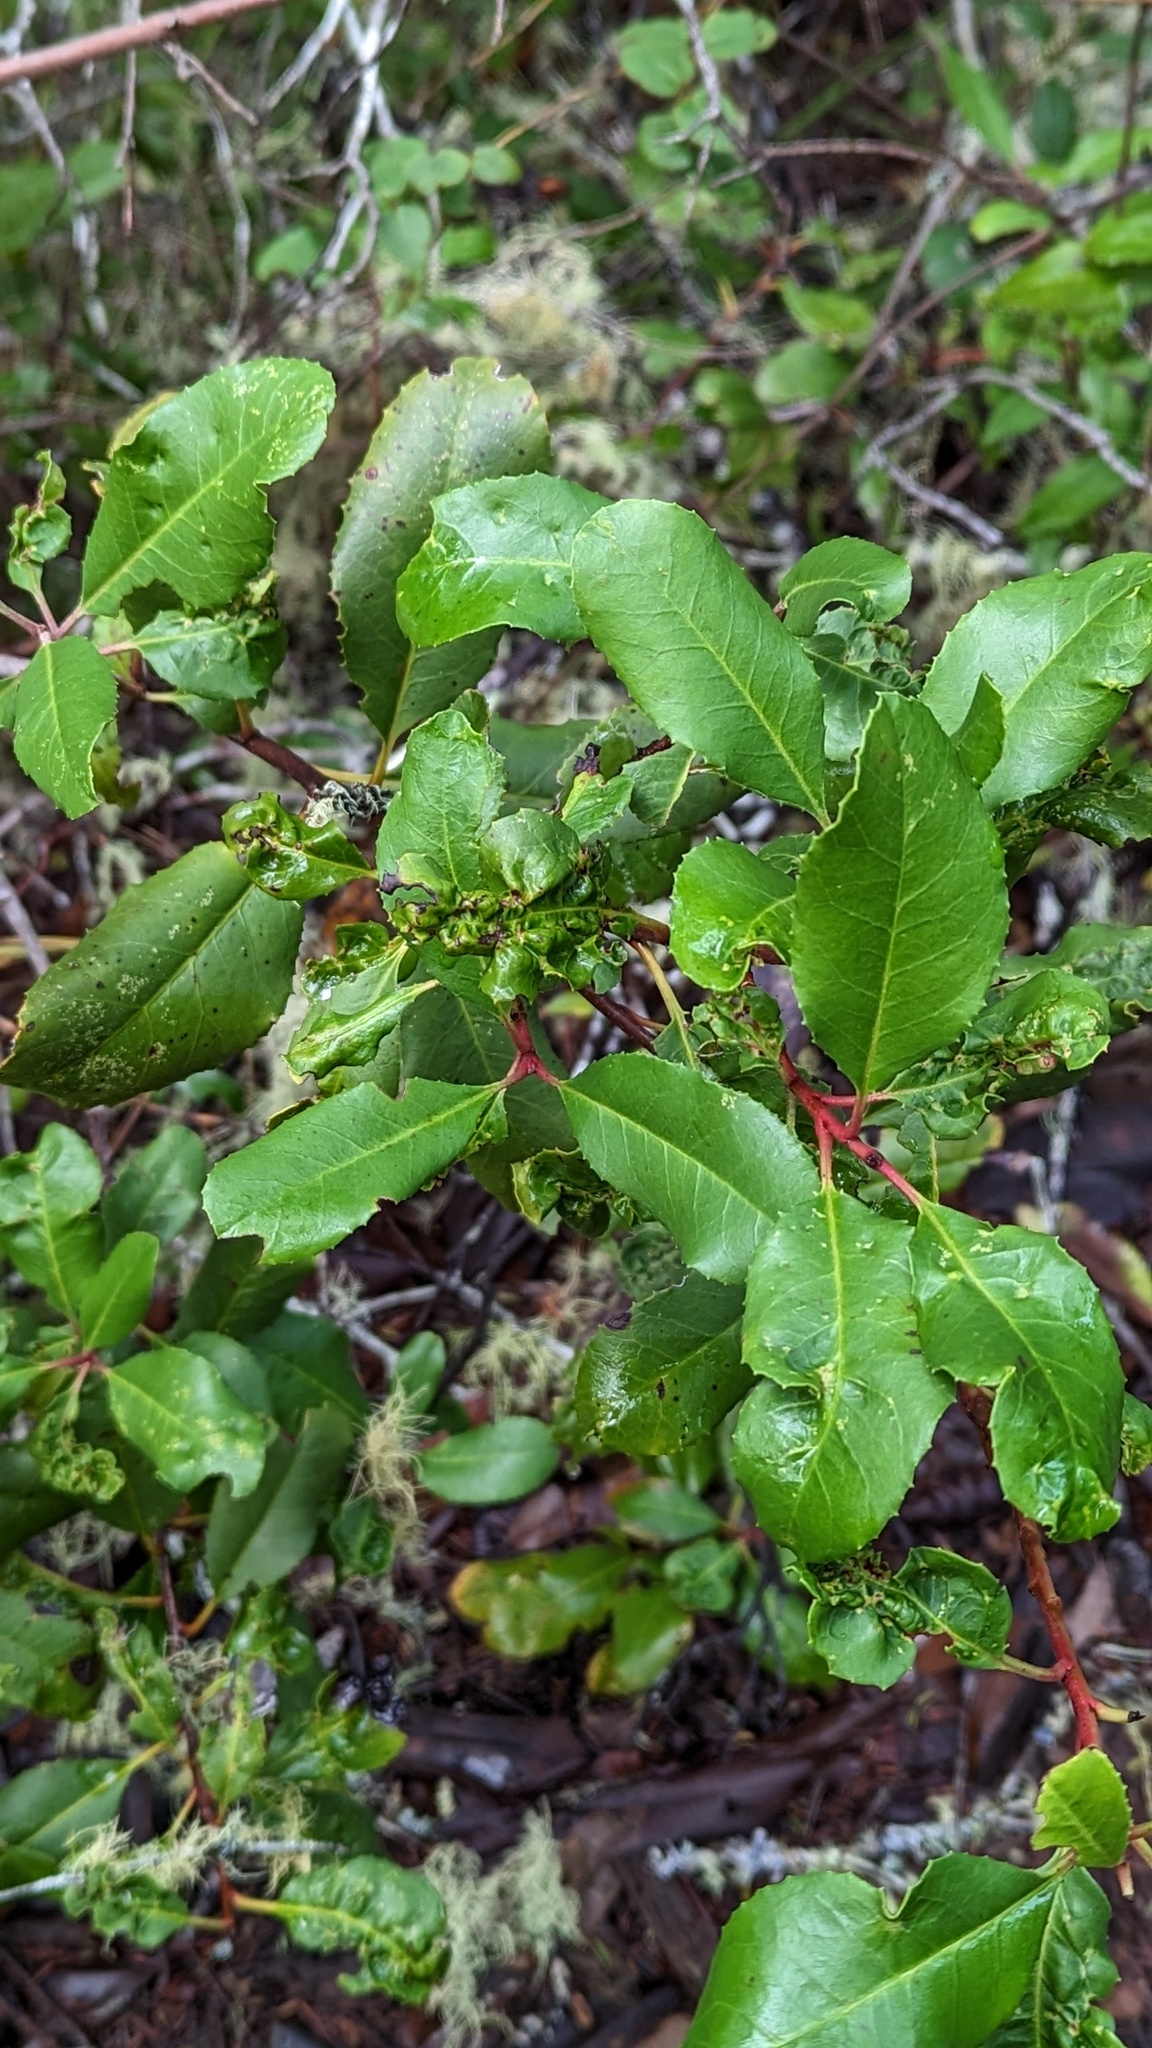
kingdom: Animalia
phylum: Arthropoda
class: Insecta
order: Thysanoptera
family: Phlaeothripidae
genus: Liothrips
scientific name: Liothrips ilex
